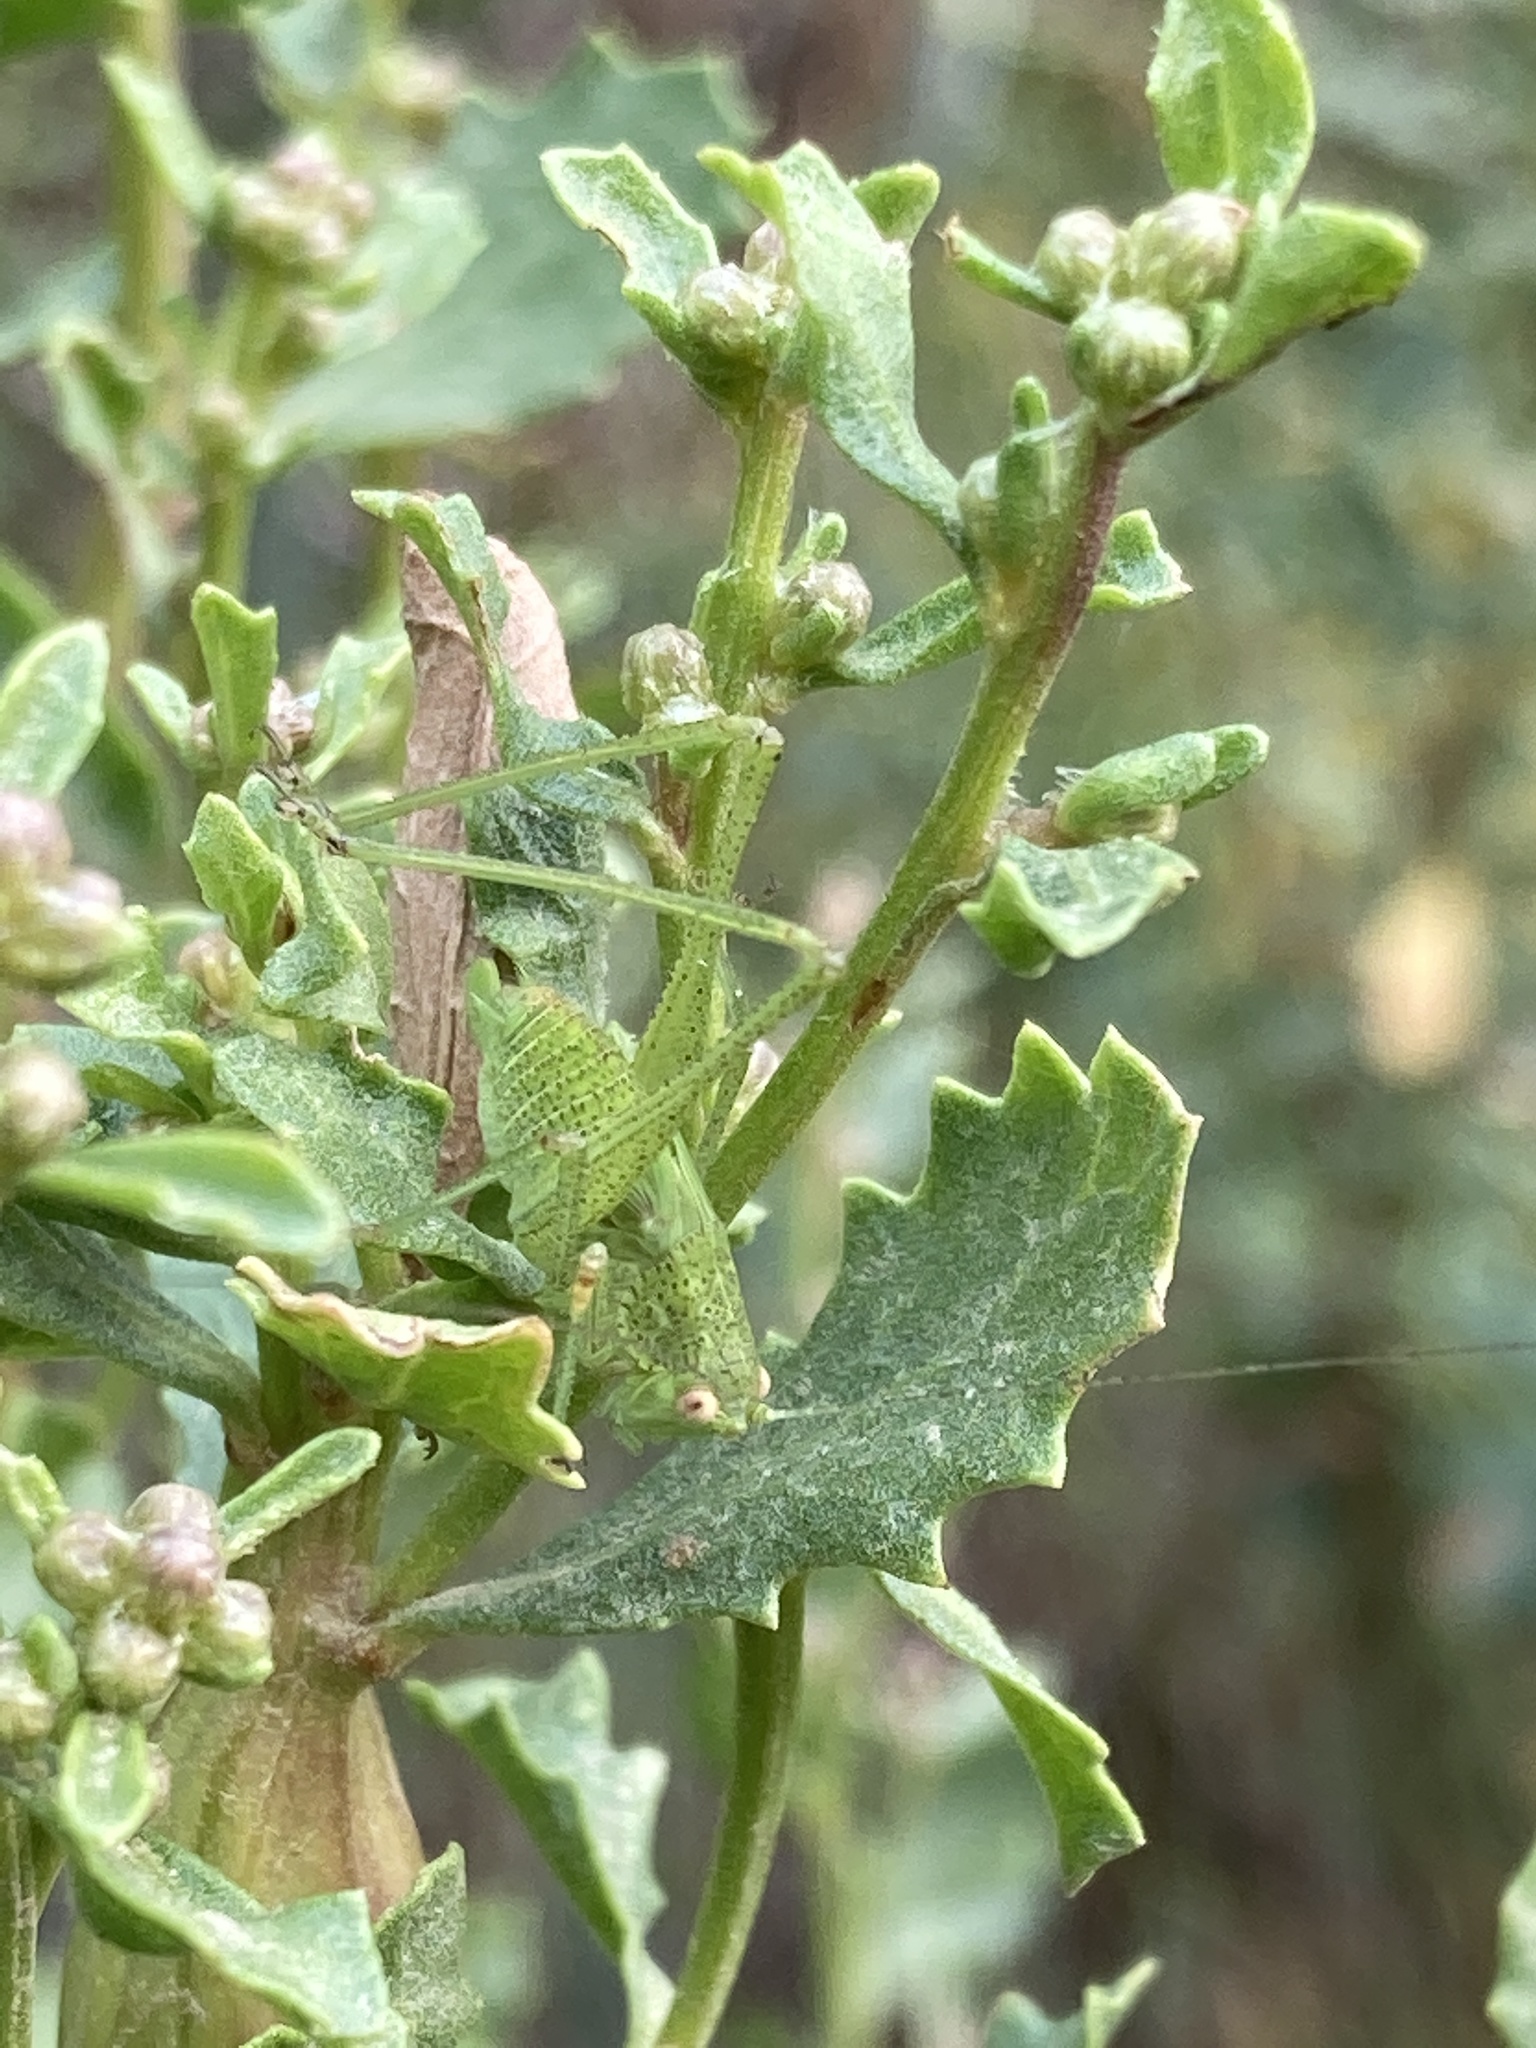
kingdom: Animalia
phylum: Arthropoda
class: Insecta
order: Orthoptera
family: Tettigoniidae
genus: Phaneroptera
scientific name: Phaneroptera nana
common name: Southern sickle bush-cricket
